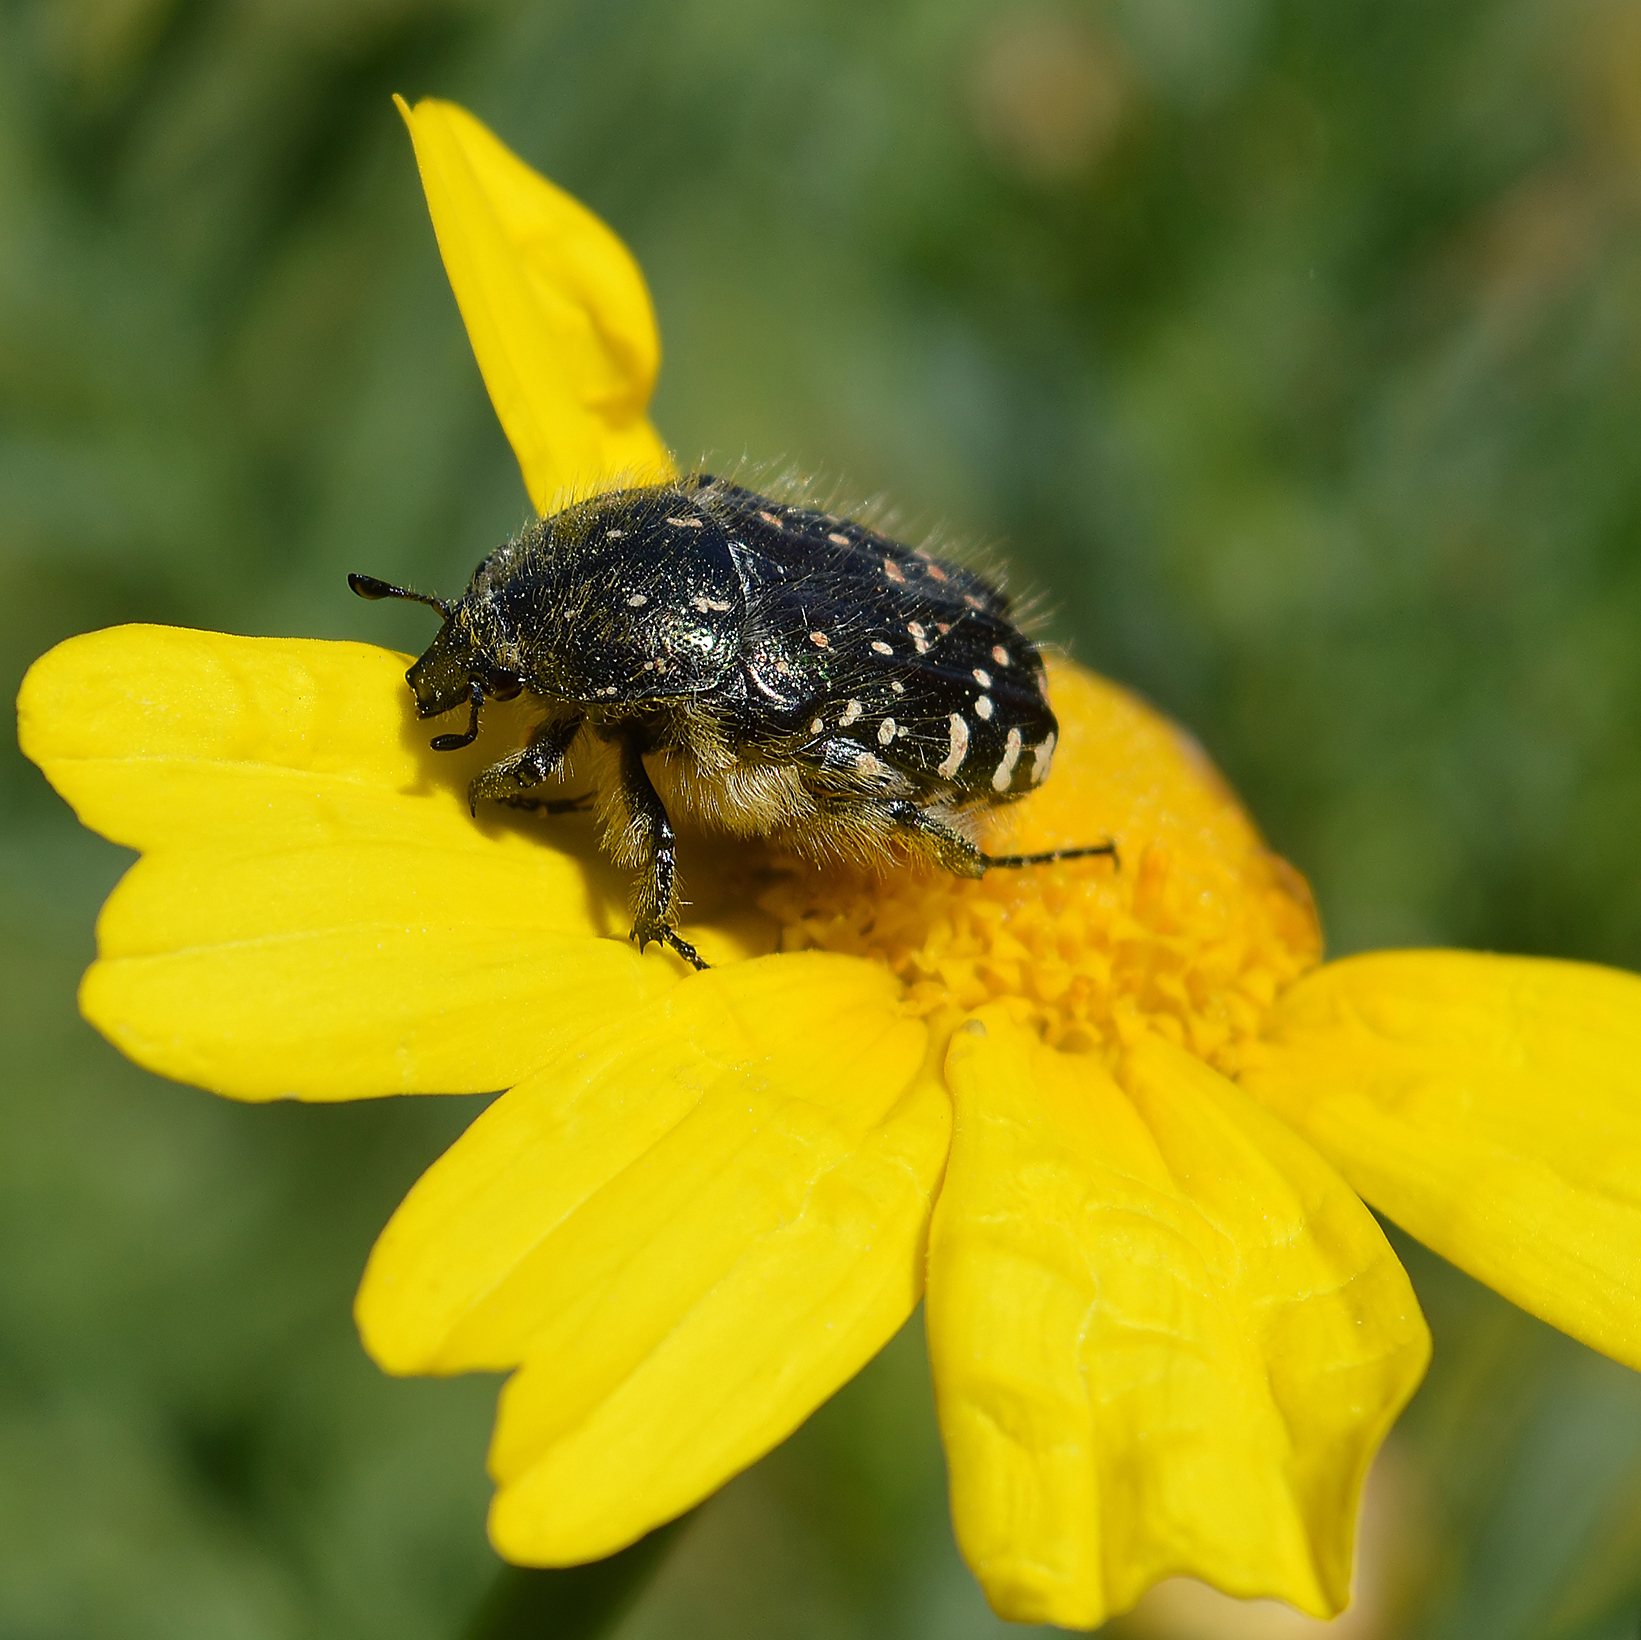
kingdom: Animalia
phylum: Arthropoda
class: Insecta
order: Coleoptera
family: Scarabaeidae
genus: Oxythyrea
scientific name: Oxythyrea funesta
